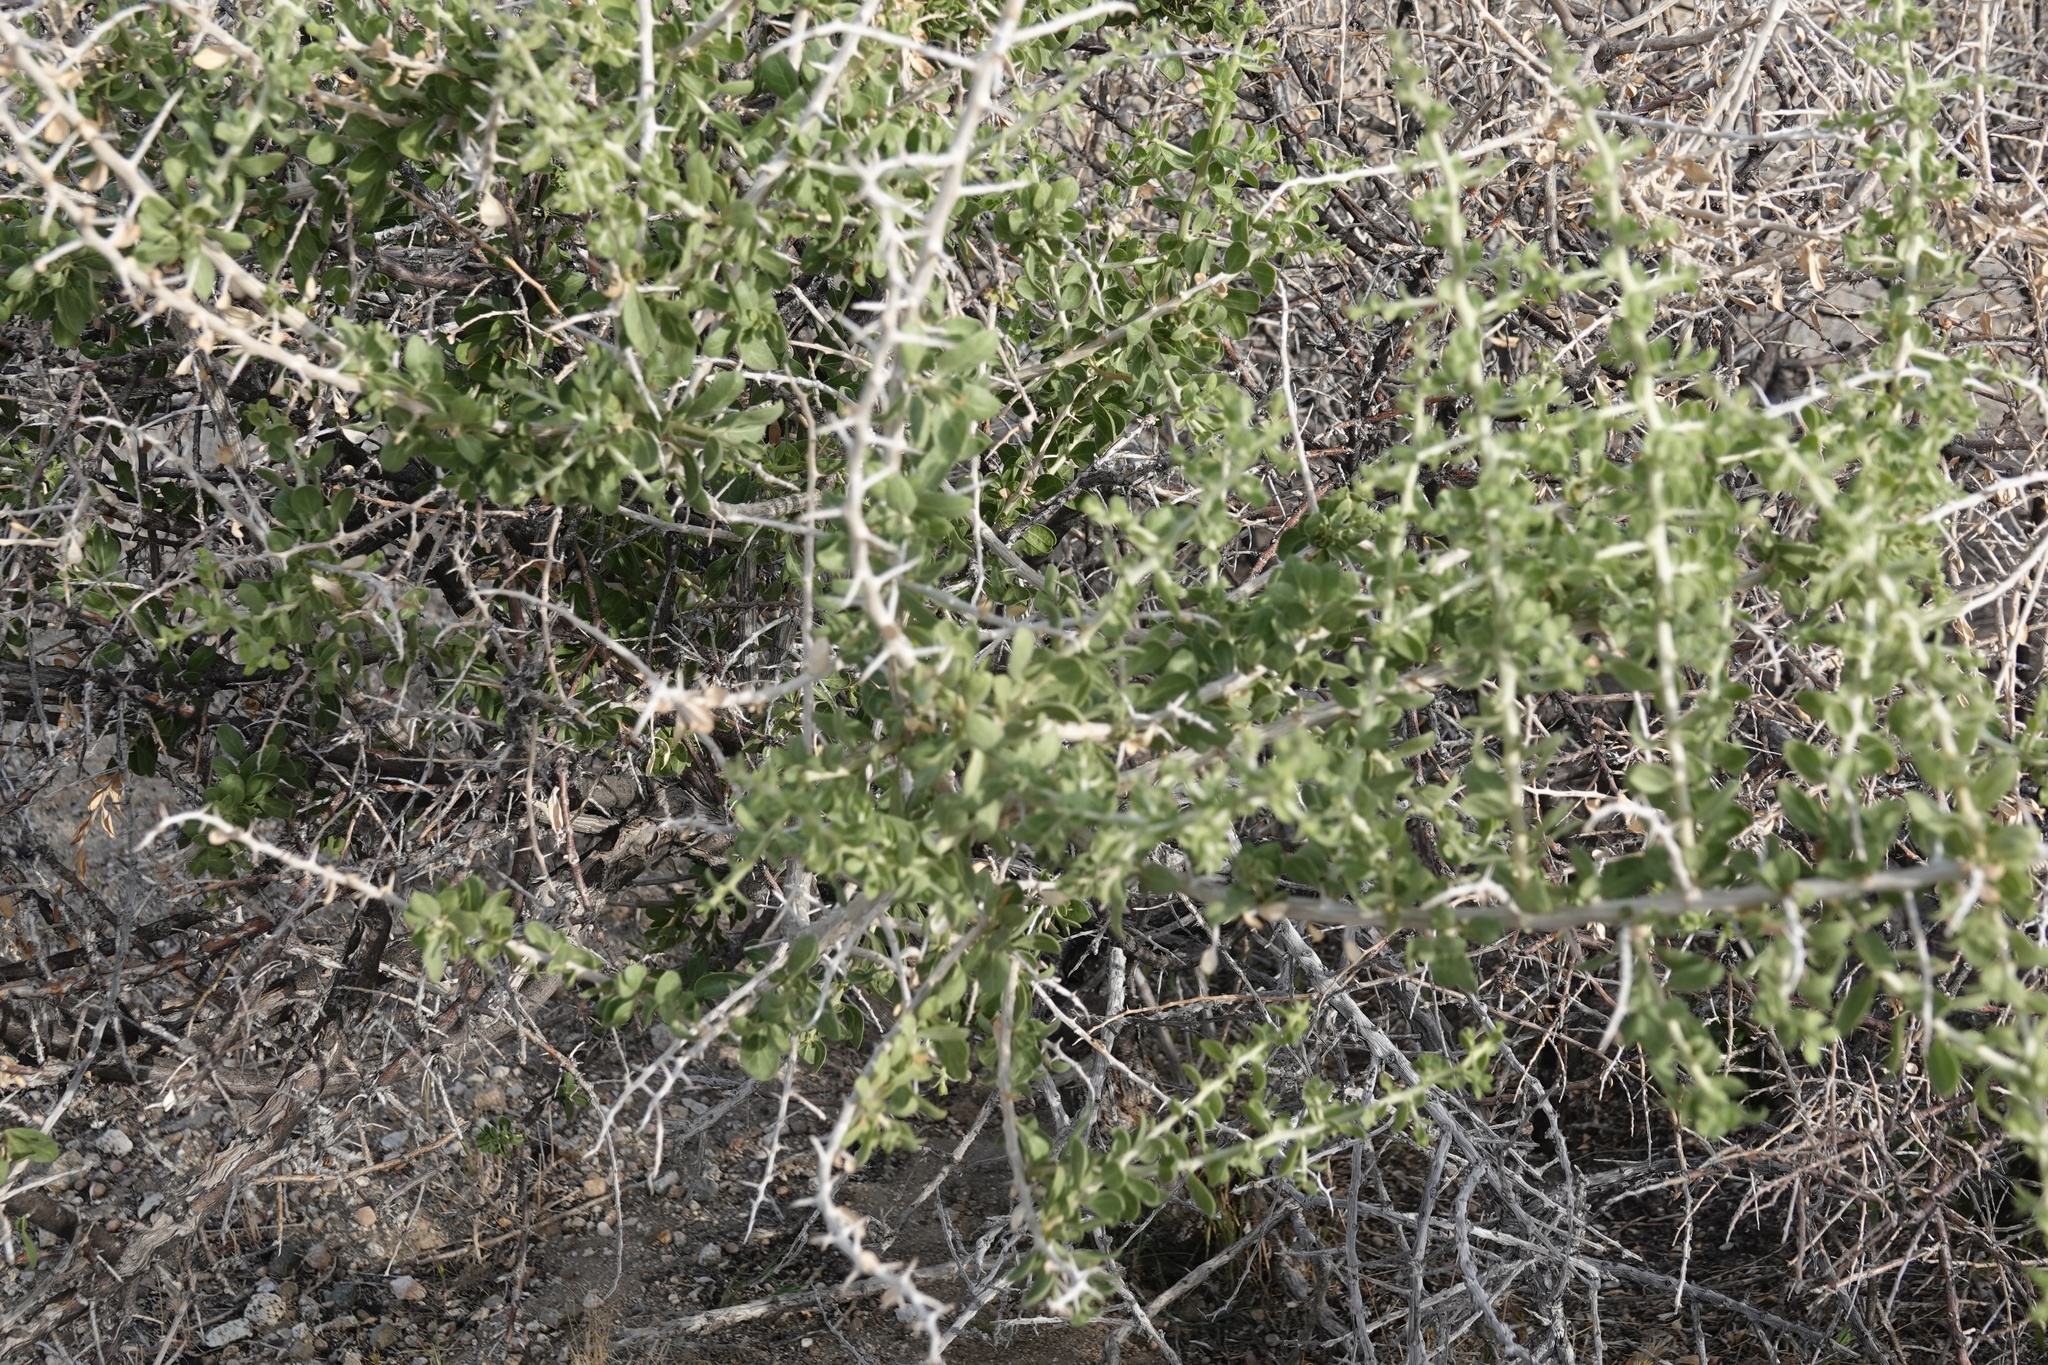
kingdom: Plantae
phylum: Tracheophyta
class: Magnoliopsida
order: Solanales
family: Solanaceae
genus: Lycium
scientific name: Lycium cooperi
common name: Peachthorn
